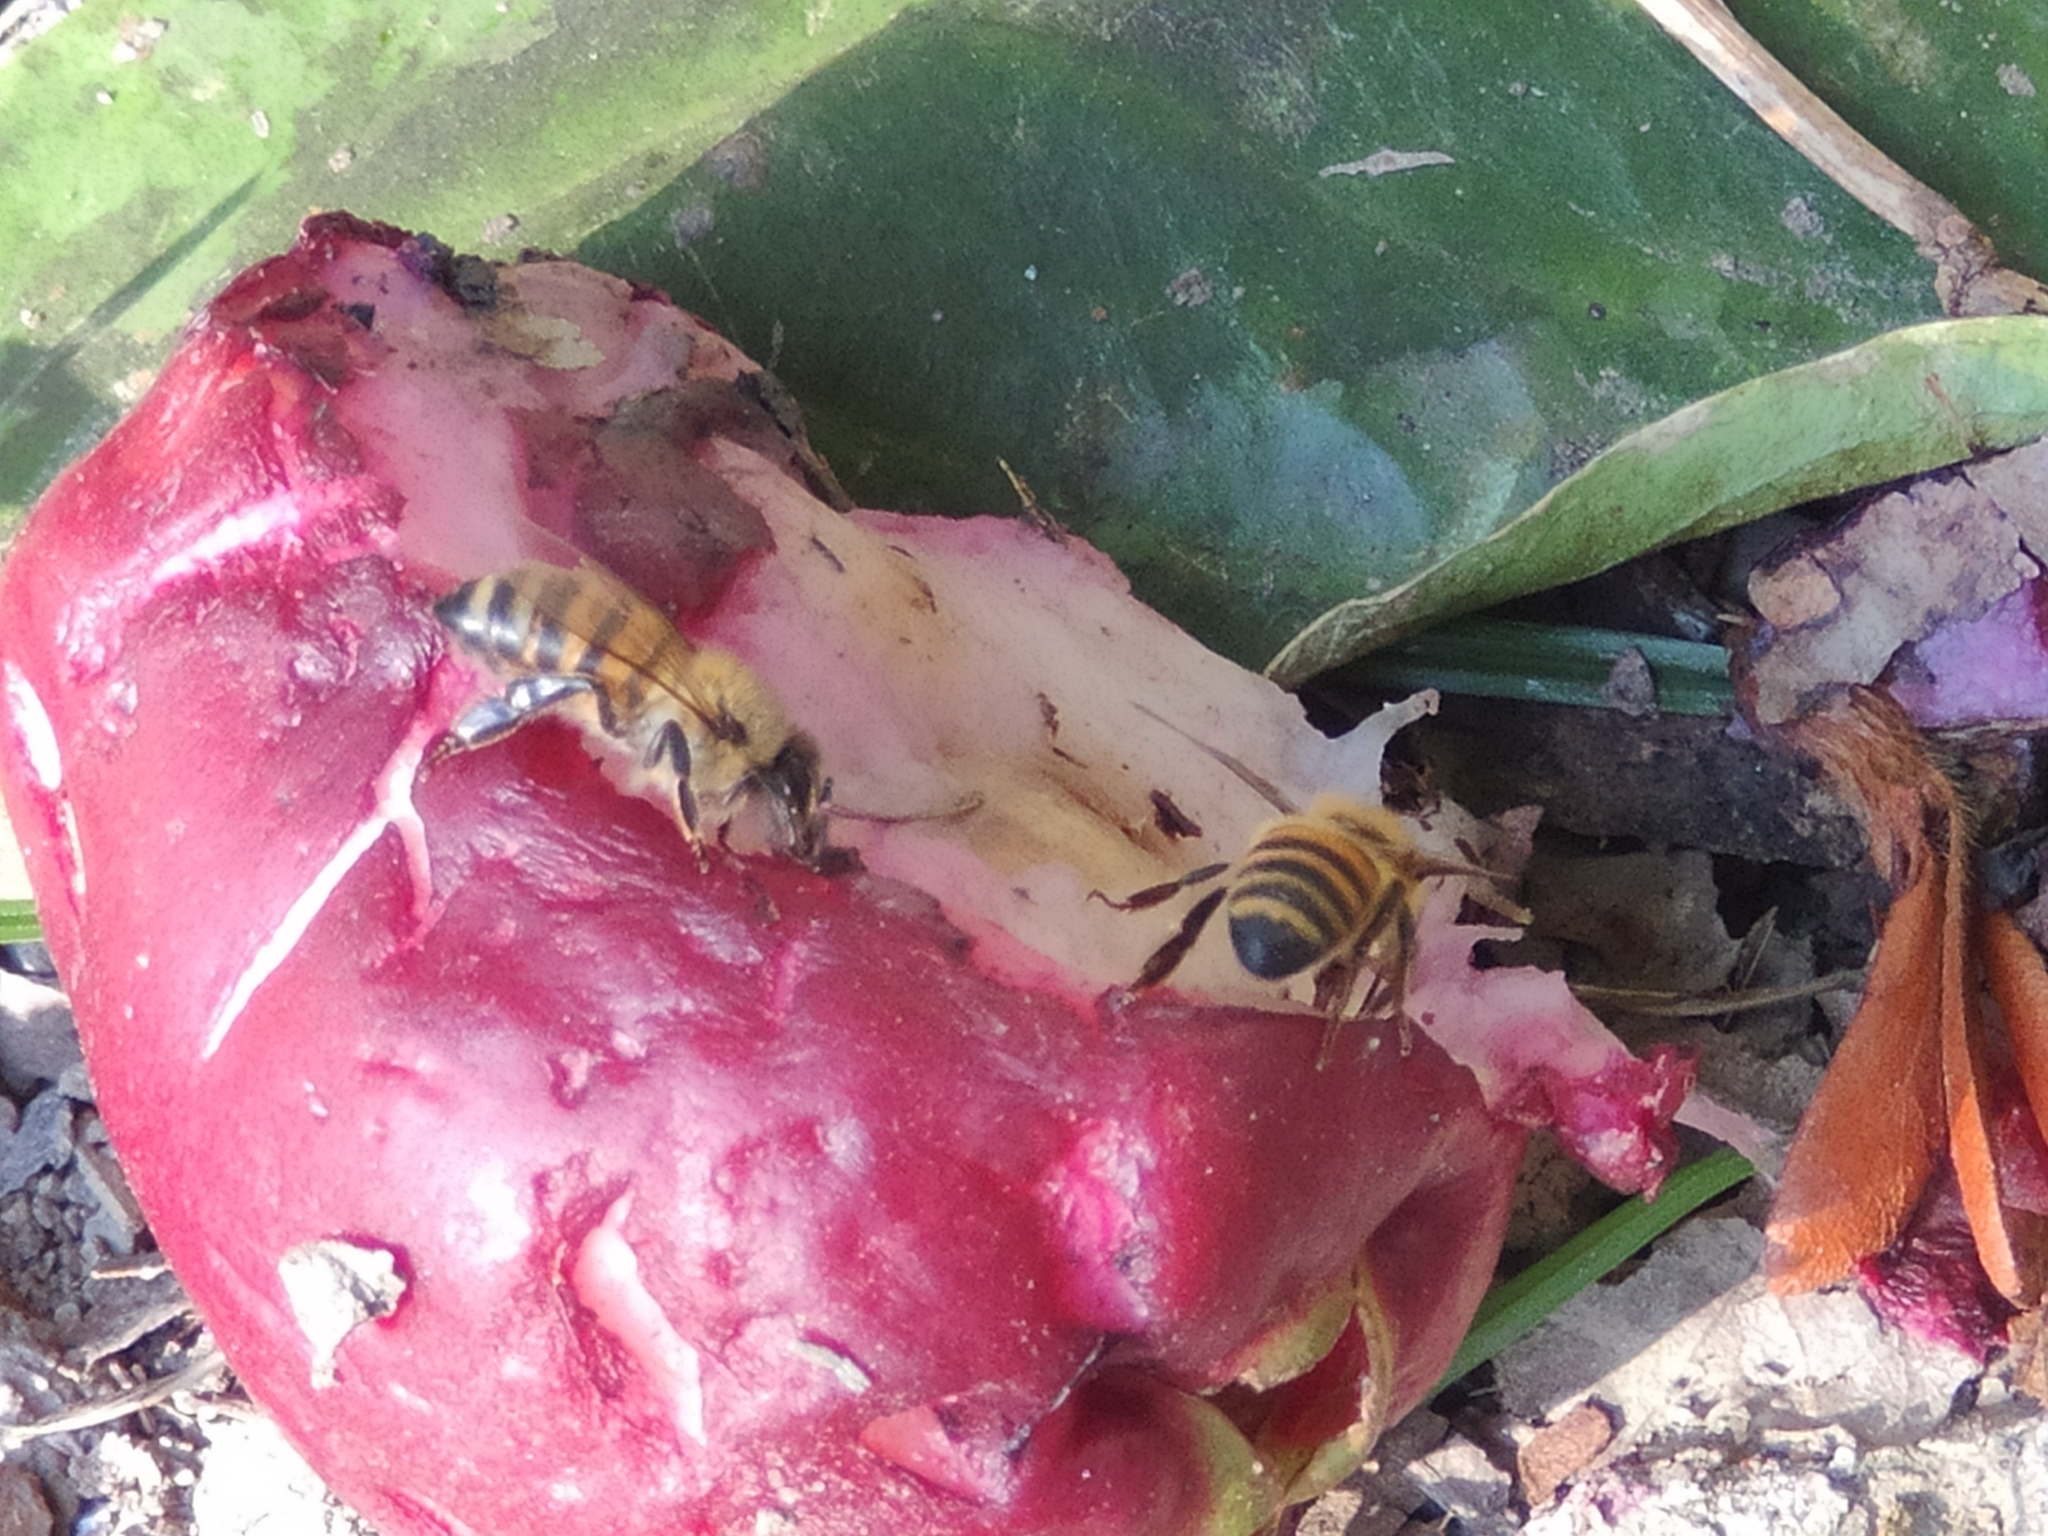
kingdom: Animalia
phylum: Arthropoda
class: Insecta
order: Hymenoptera
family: Apidae
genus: Apis
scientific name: Apis mellifera
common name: Honey bee
